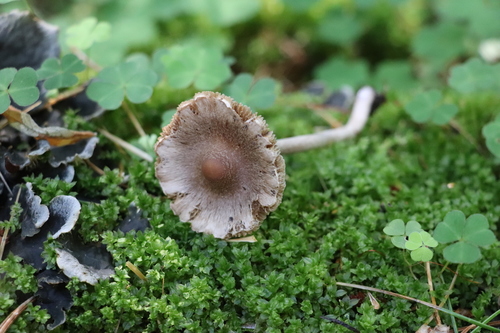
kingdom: Fungi
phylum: Basidiomycota
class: Agaricomycetes
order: Agaricales
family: Inocybaceae
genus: Inocybe
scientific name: Inocybe amethystina
